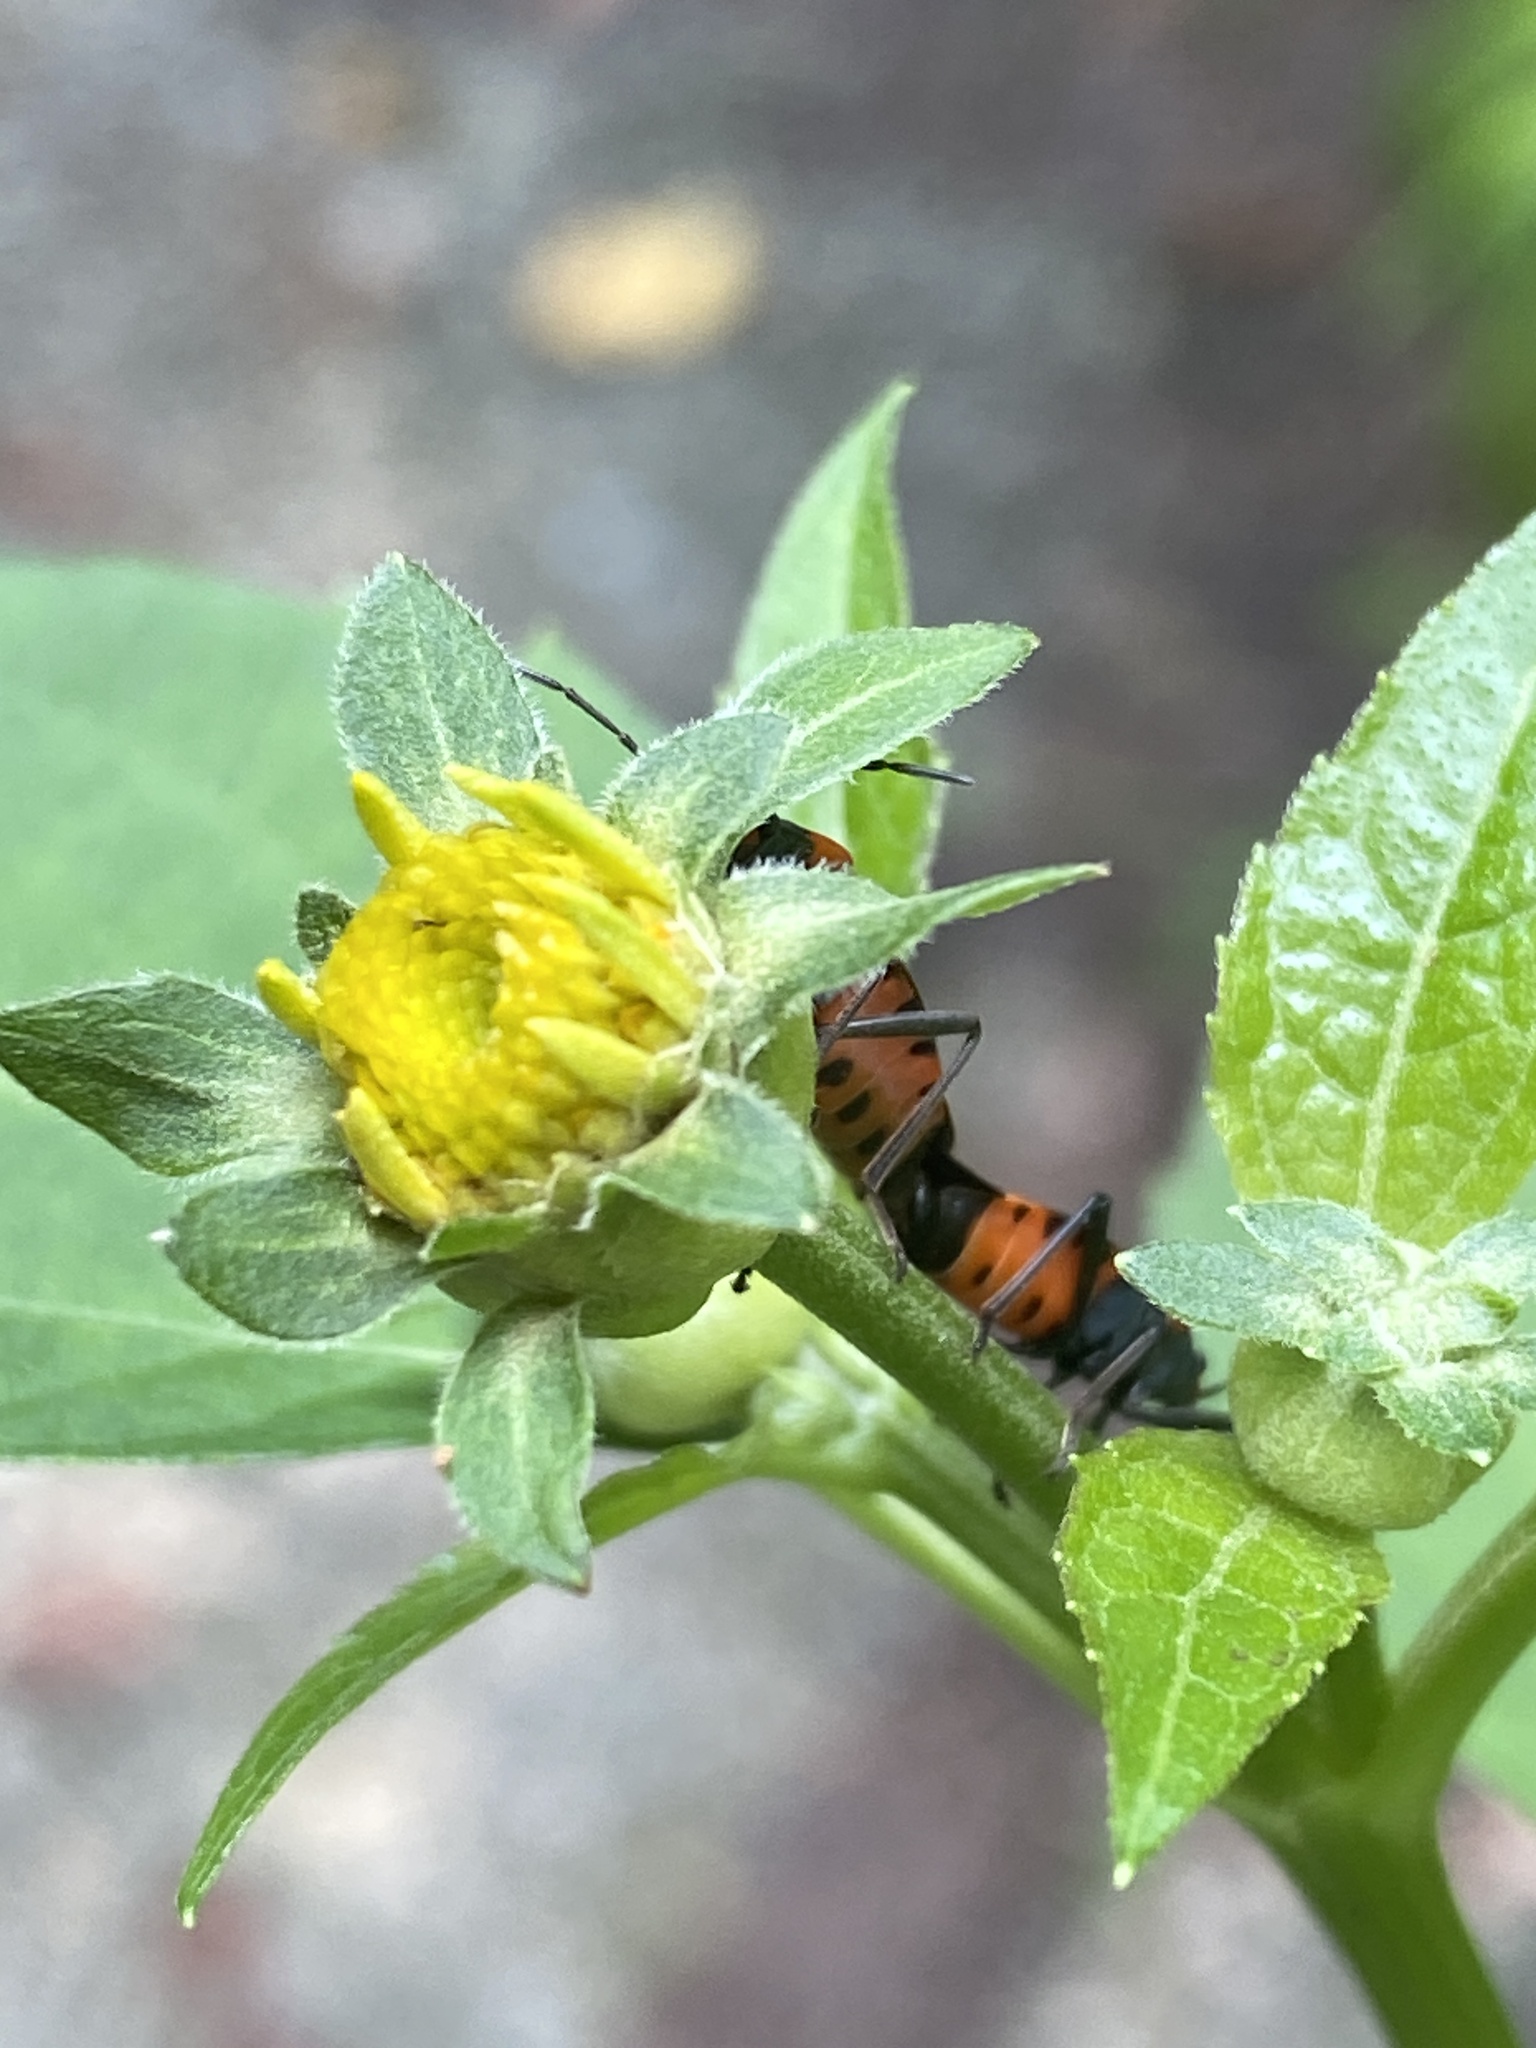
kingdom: Animalia
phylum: Arthropoda
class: Insecta
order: Hemiptera
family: Lygaeidae
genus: Lygaeus
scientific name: Lygaeus turcicus
